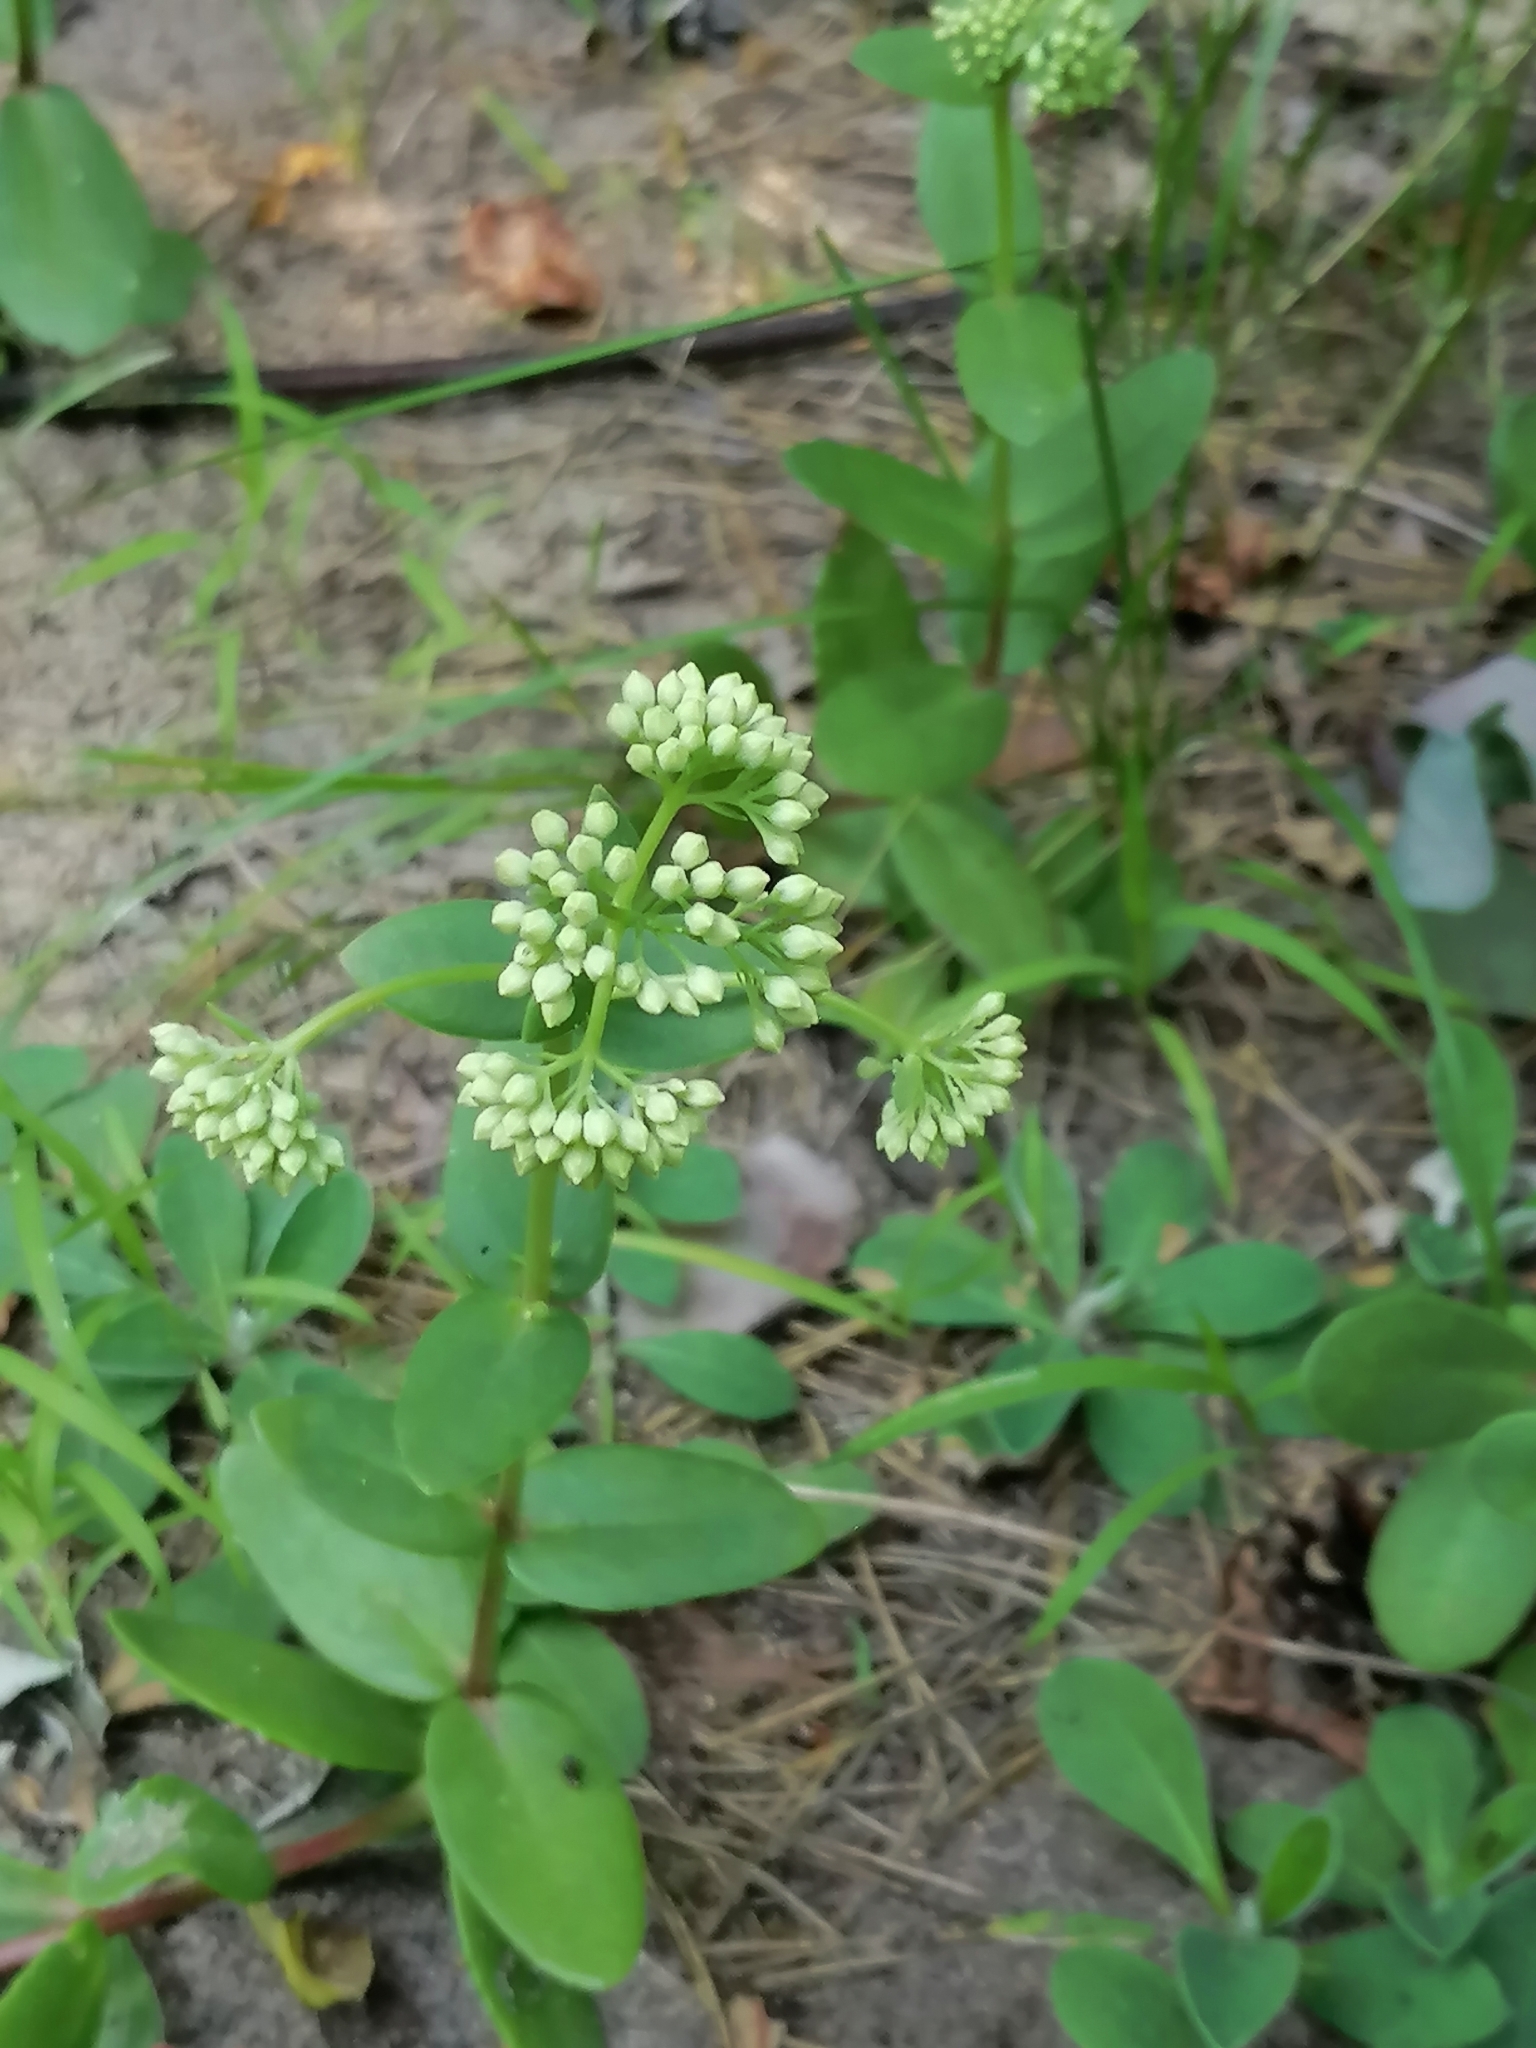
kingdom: Plantae
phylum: Tracheophyta
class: Magnoliopsida
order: Saxifragales
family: Crassulaceae
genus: Hylotelephium
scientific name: Hylotelephium maximum
